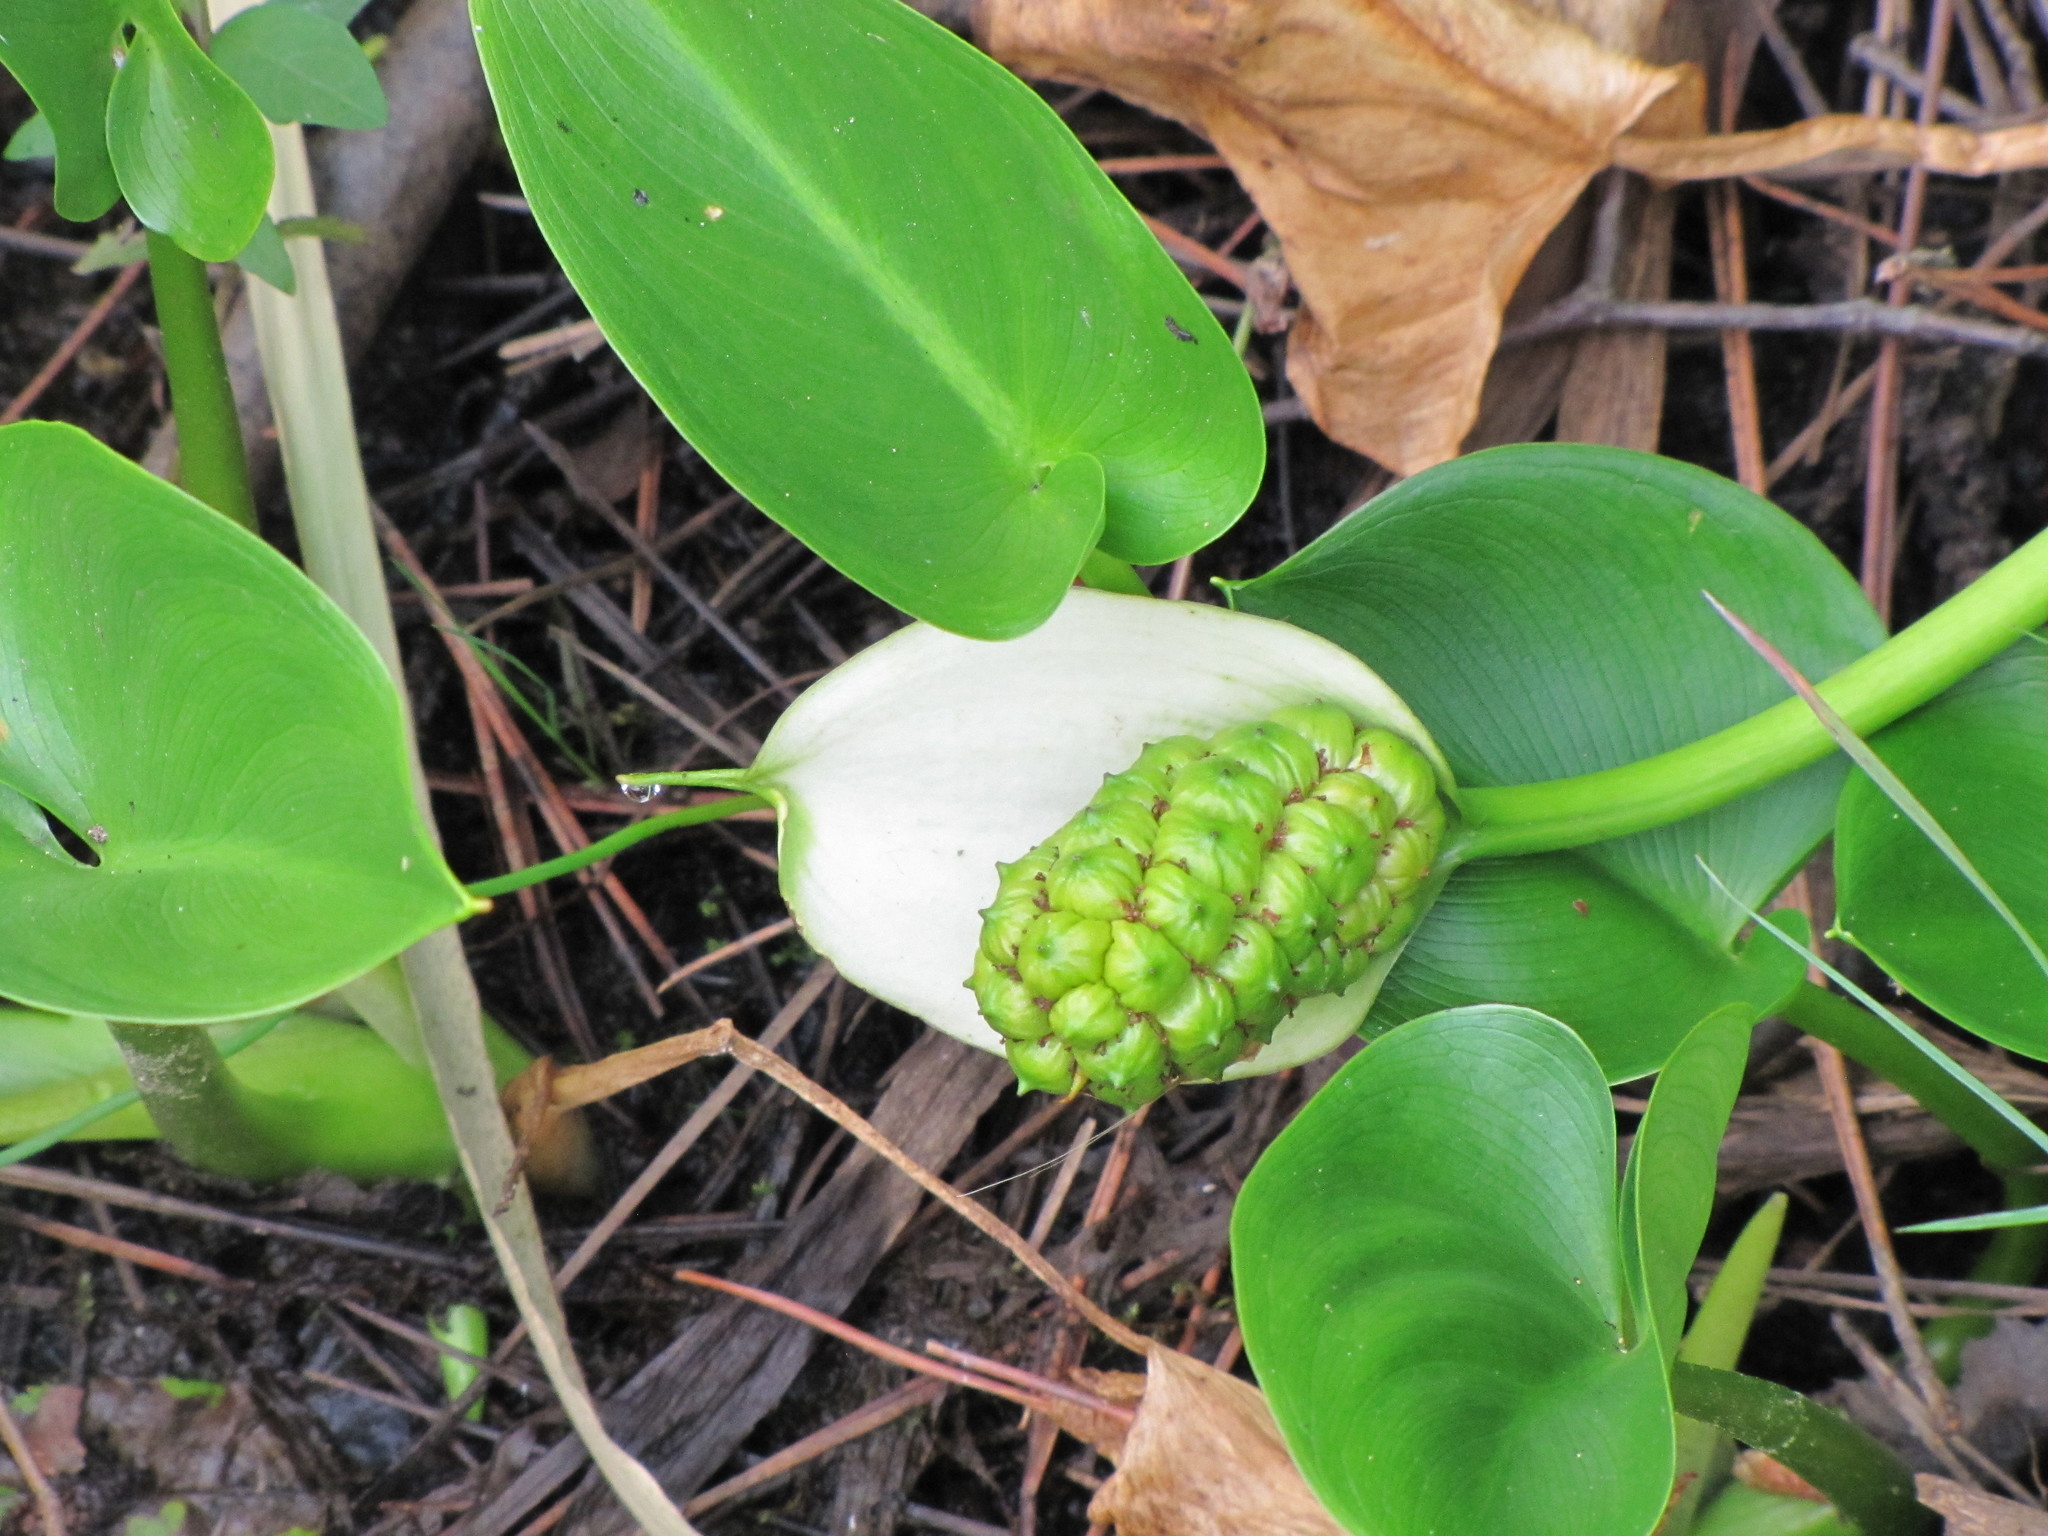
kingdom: Plantae
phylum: Tracheophyta
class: Liliopsida
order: Alismatales
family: Araceae
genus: Calla
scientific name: Calla palustris
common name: Bog arum
